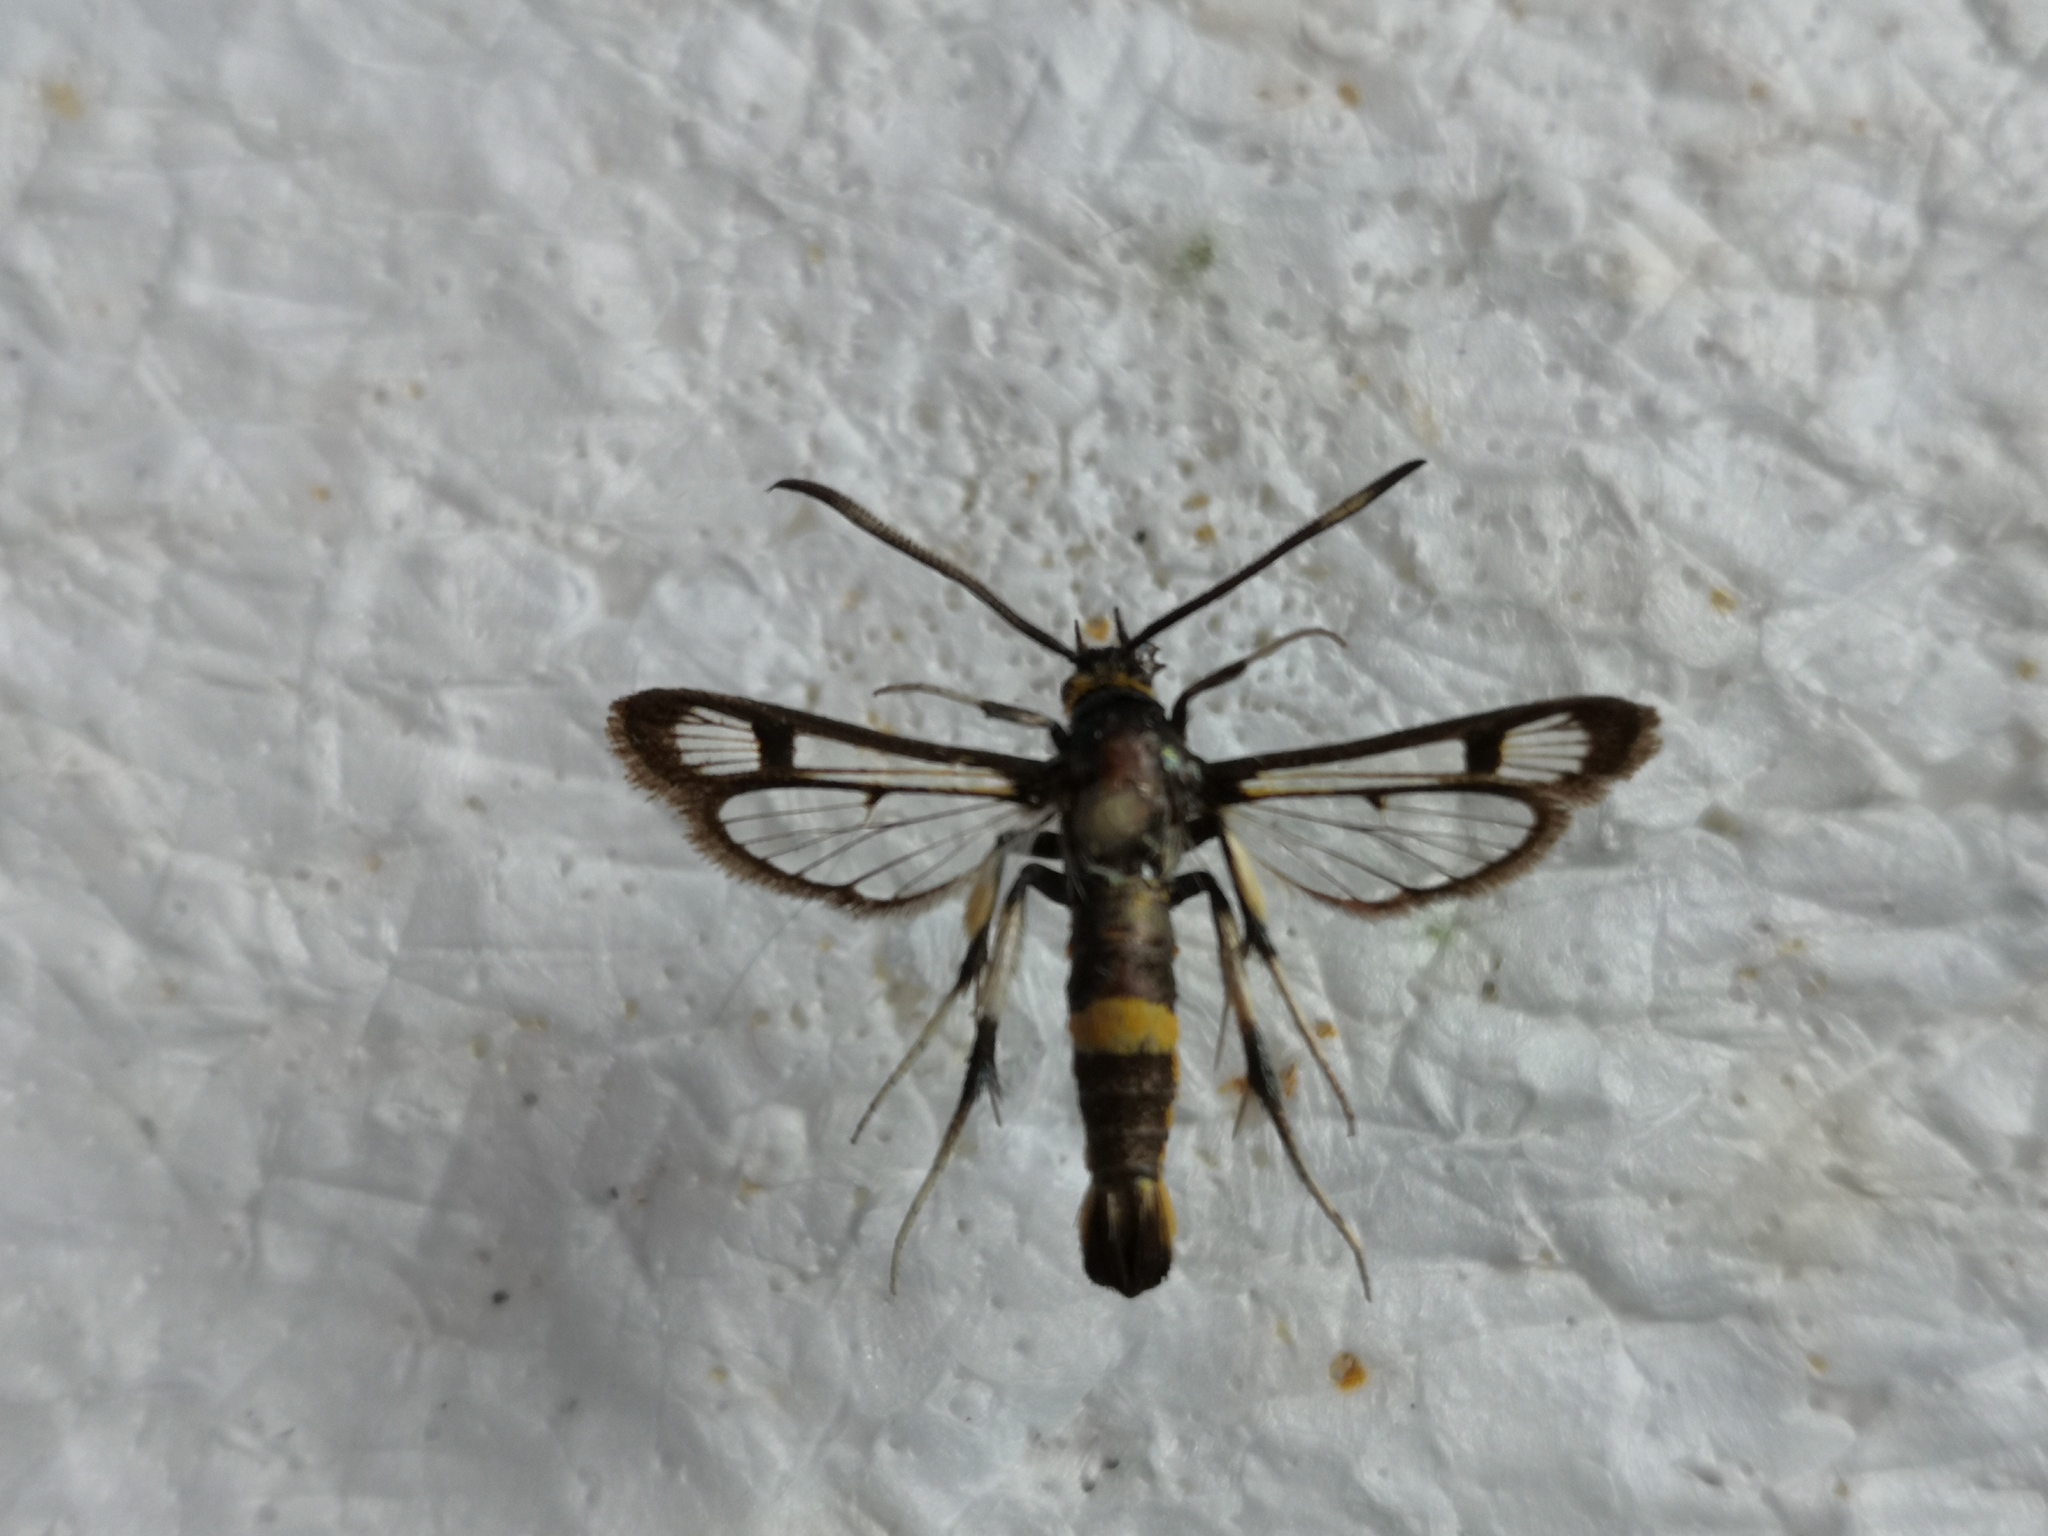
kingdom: Animalia
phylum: Arthropoda
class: Insecta
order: Lepidoptera
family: Sesiidae
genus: Pyropteron
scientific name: Pyropteron pipiziformis
